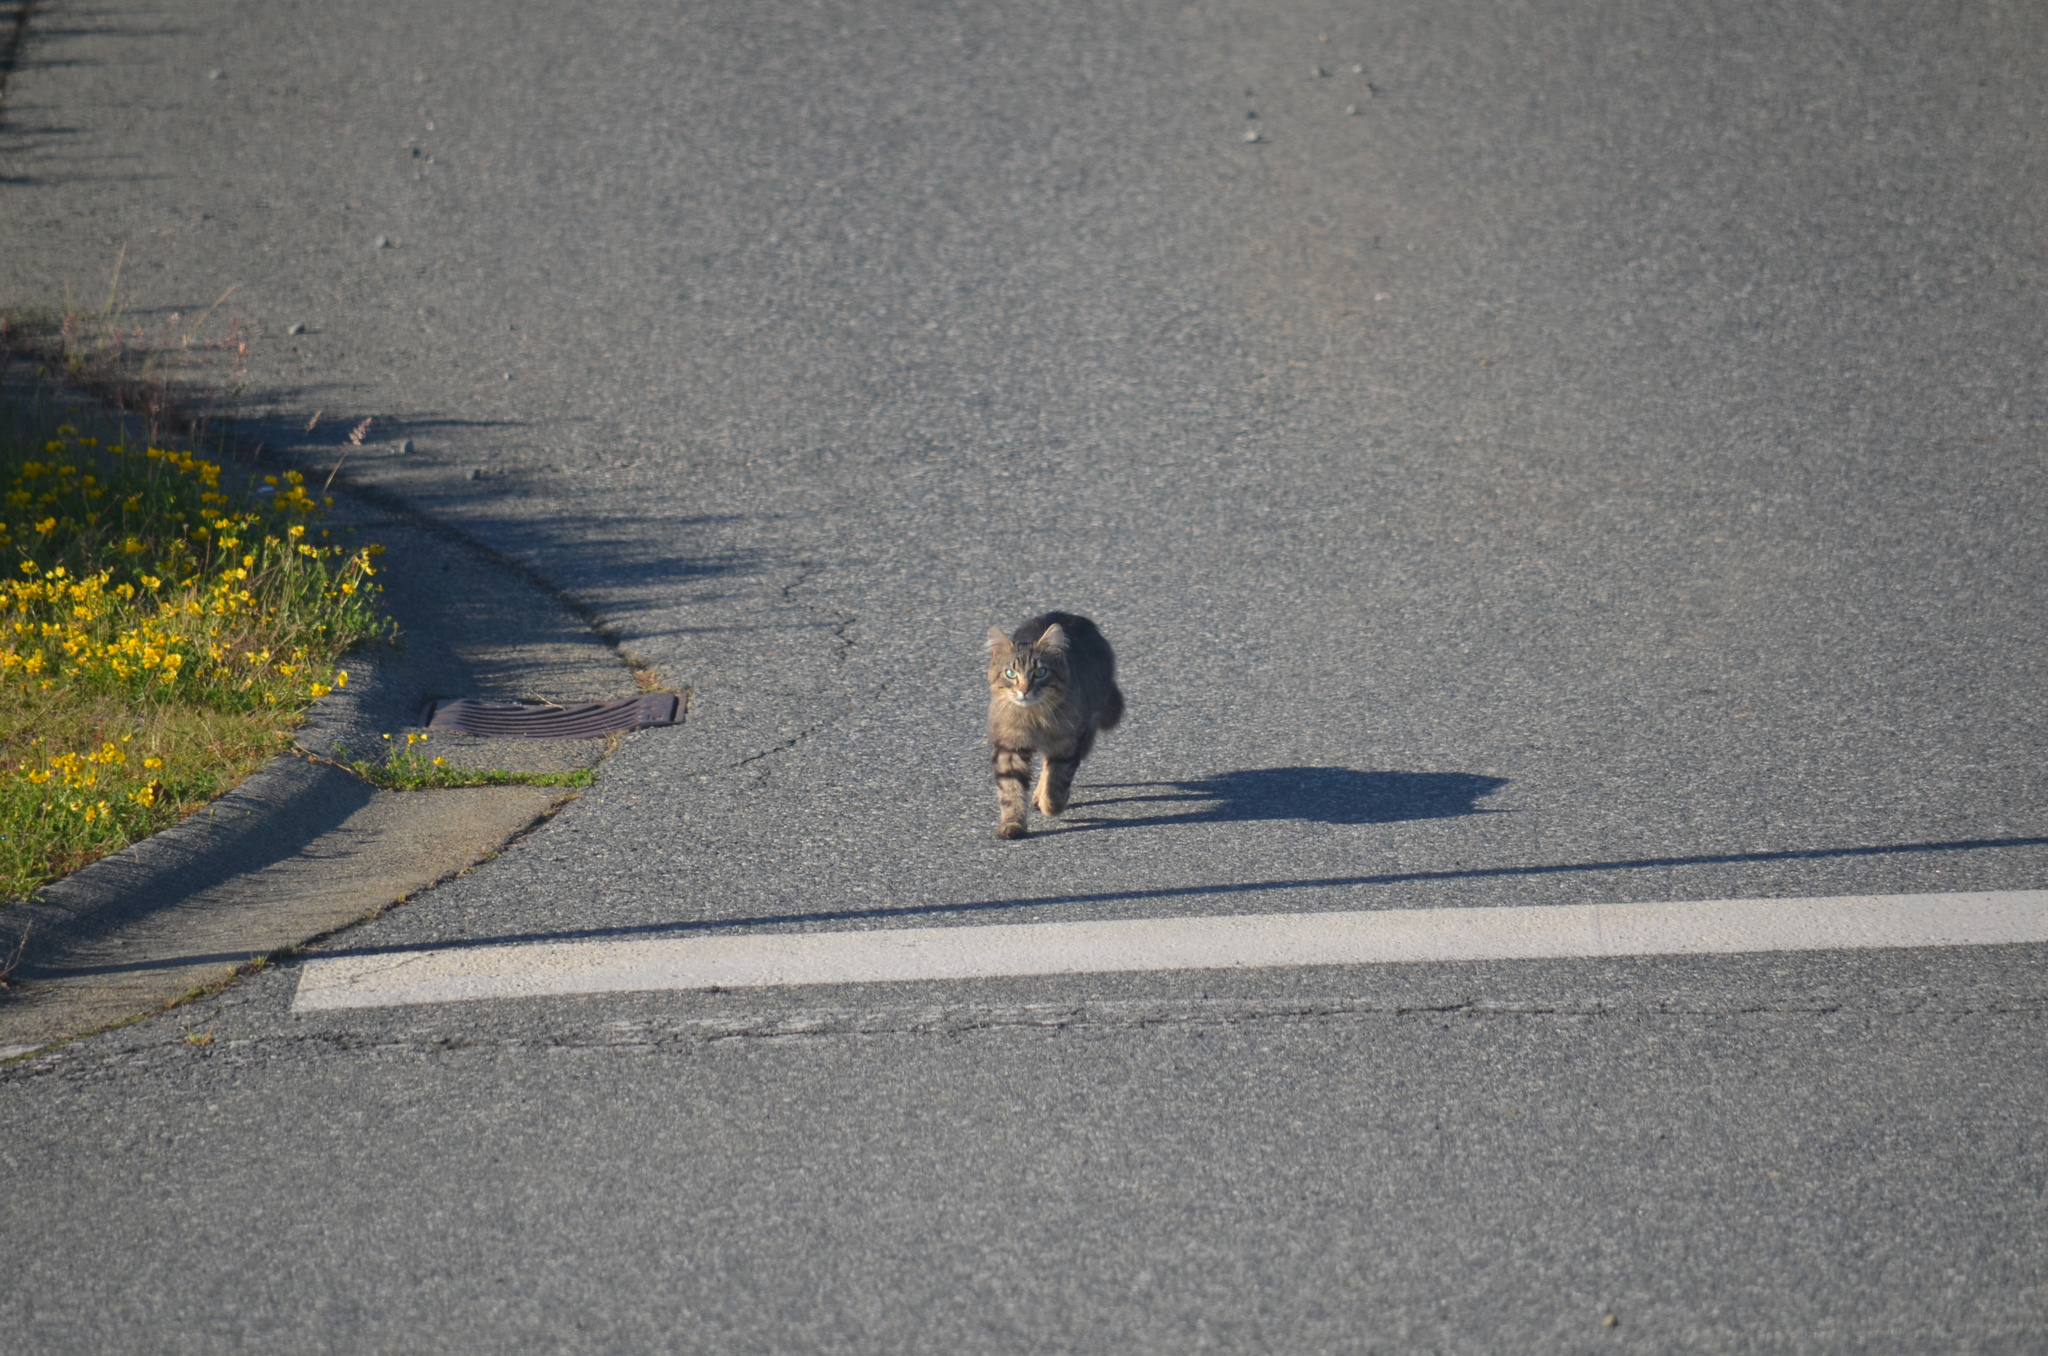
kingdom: Animalia
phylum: Chordata
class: Mammalia
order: Carnivora
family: Felidae
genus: Felis
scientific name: Felis catus
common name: Domestic cat
